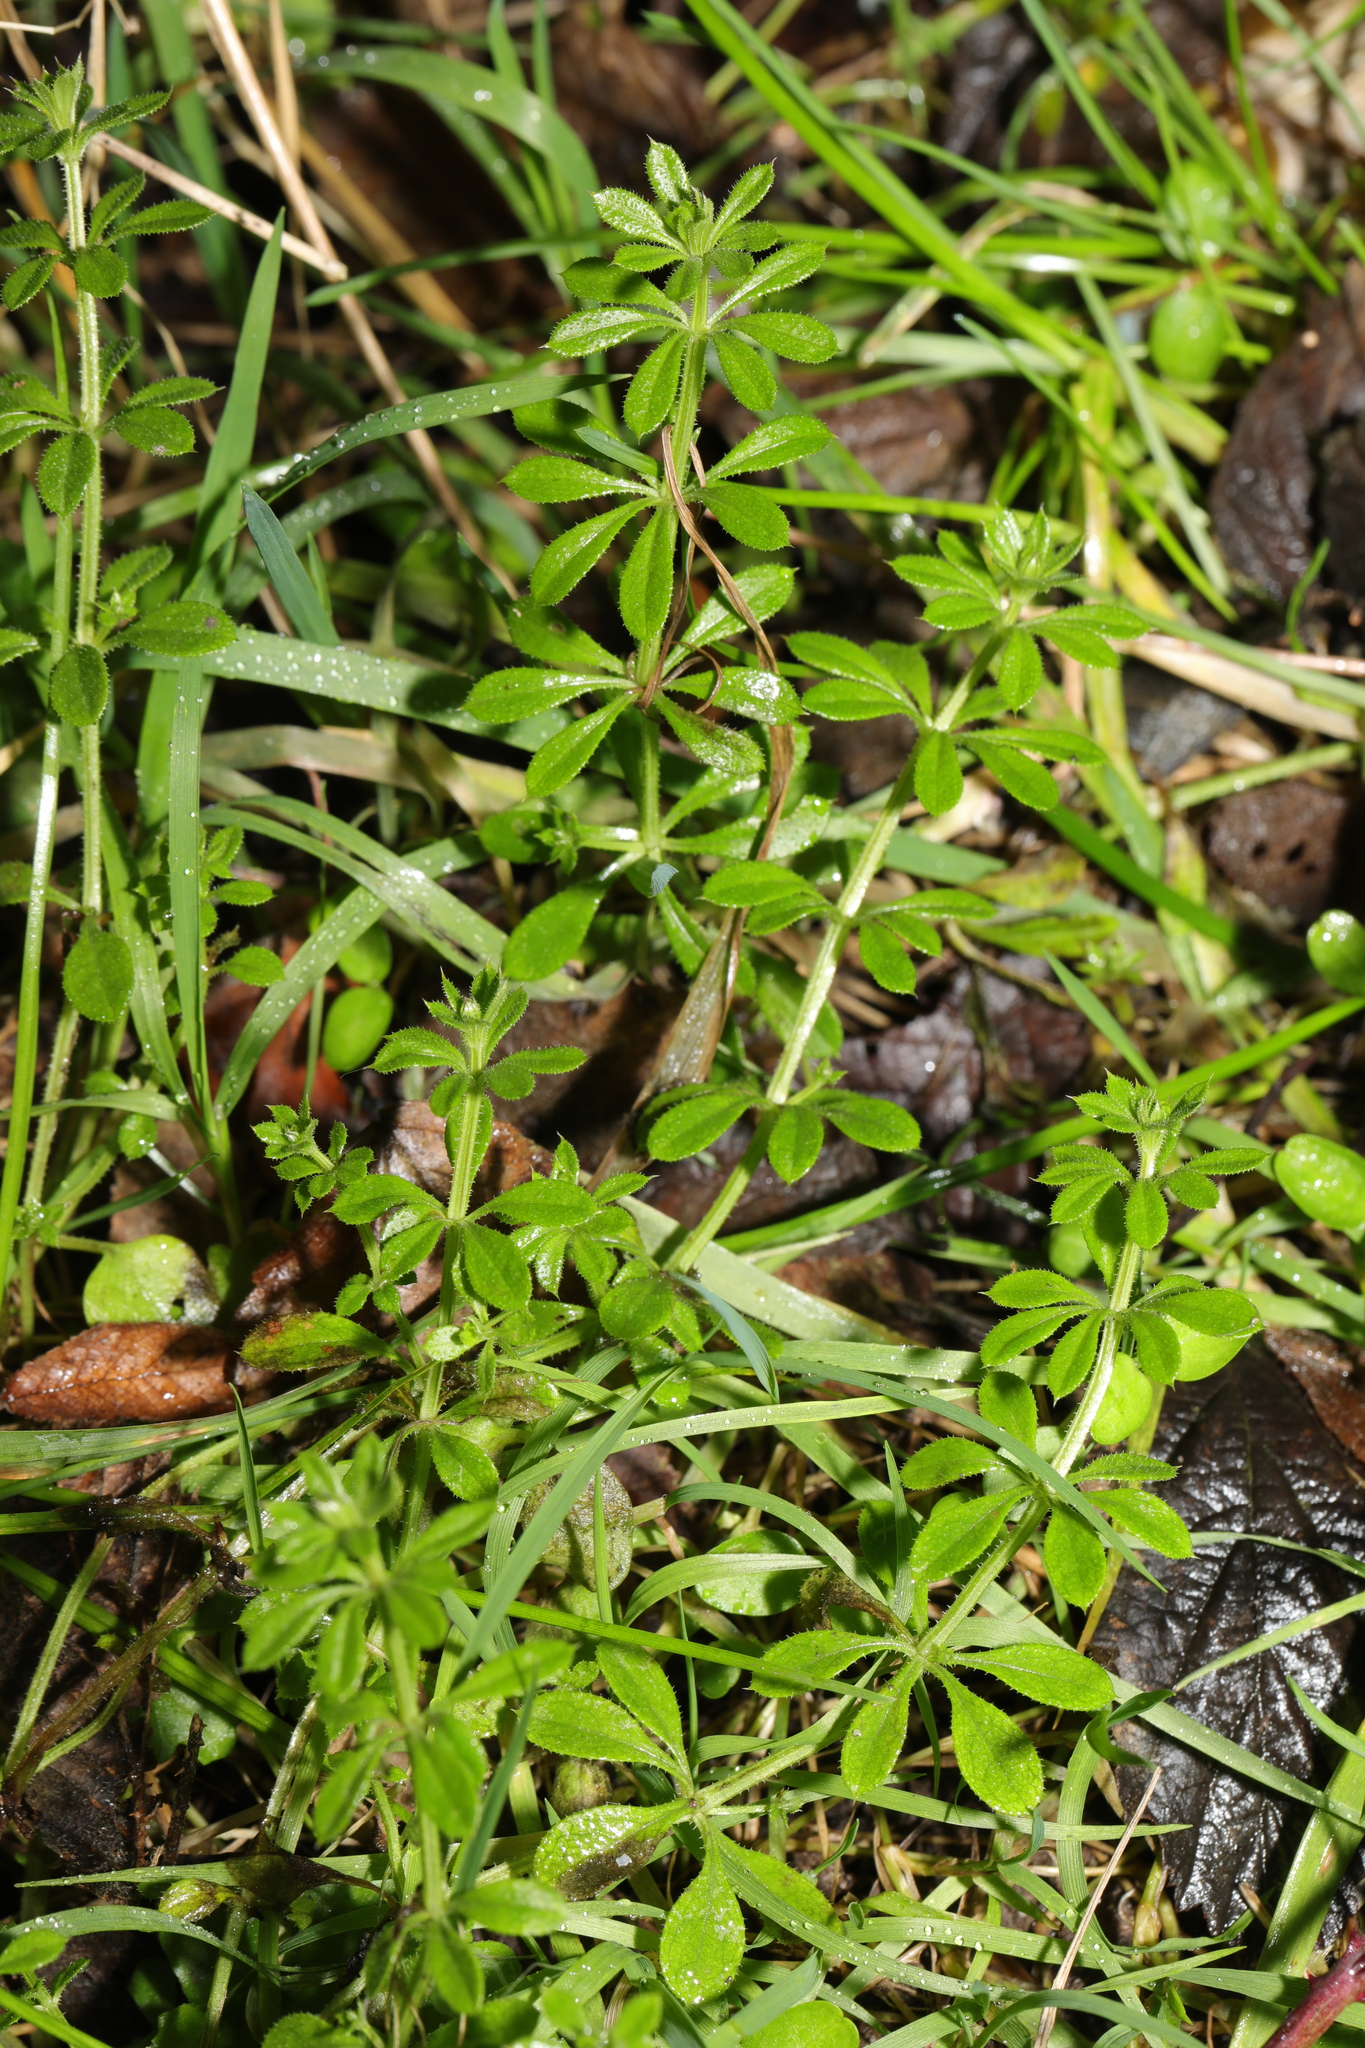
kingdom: Plantae
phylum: Tracheophyta
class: Magnoliopsida
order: Gentianales
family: Rubiaceae
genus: Galium
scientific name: Galium aparine
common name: Cleavers
